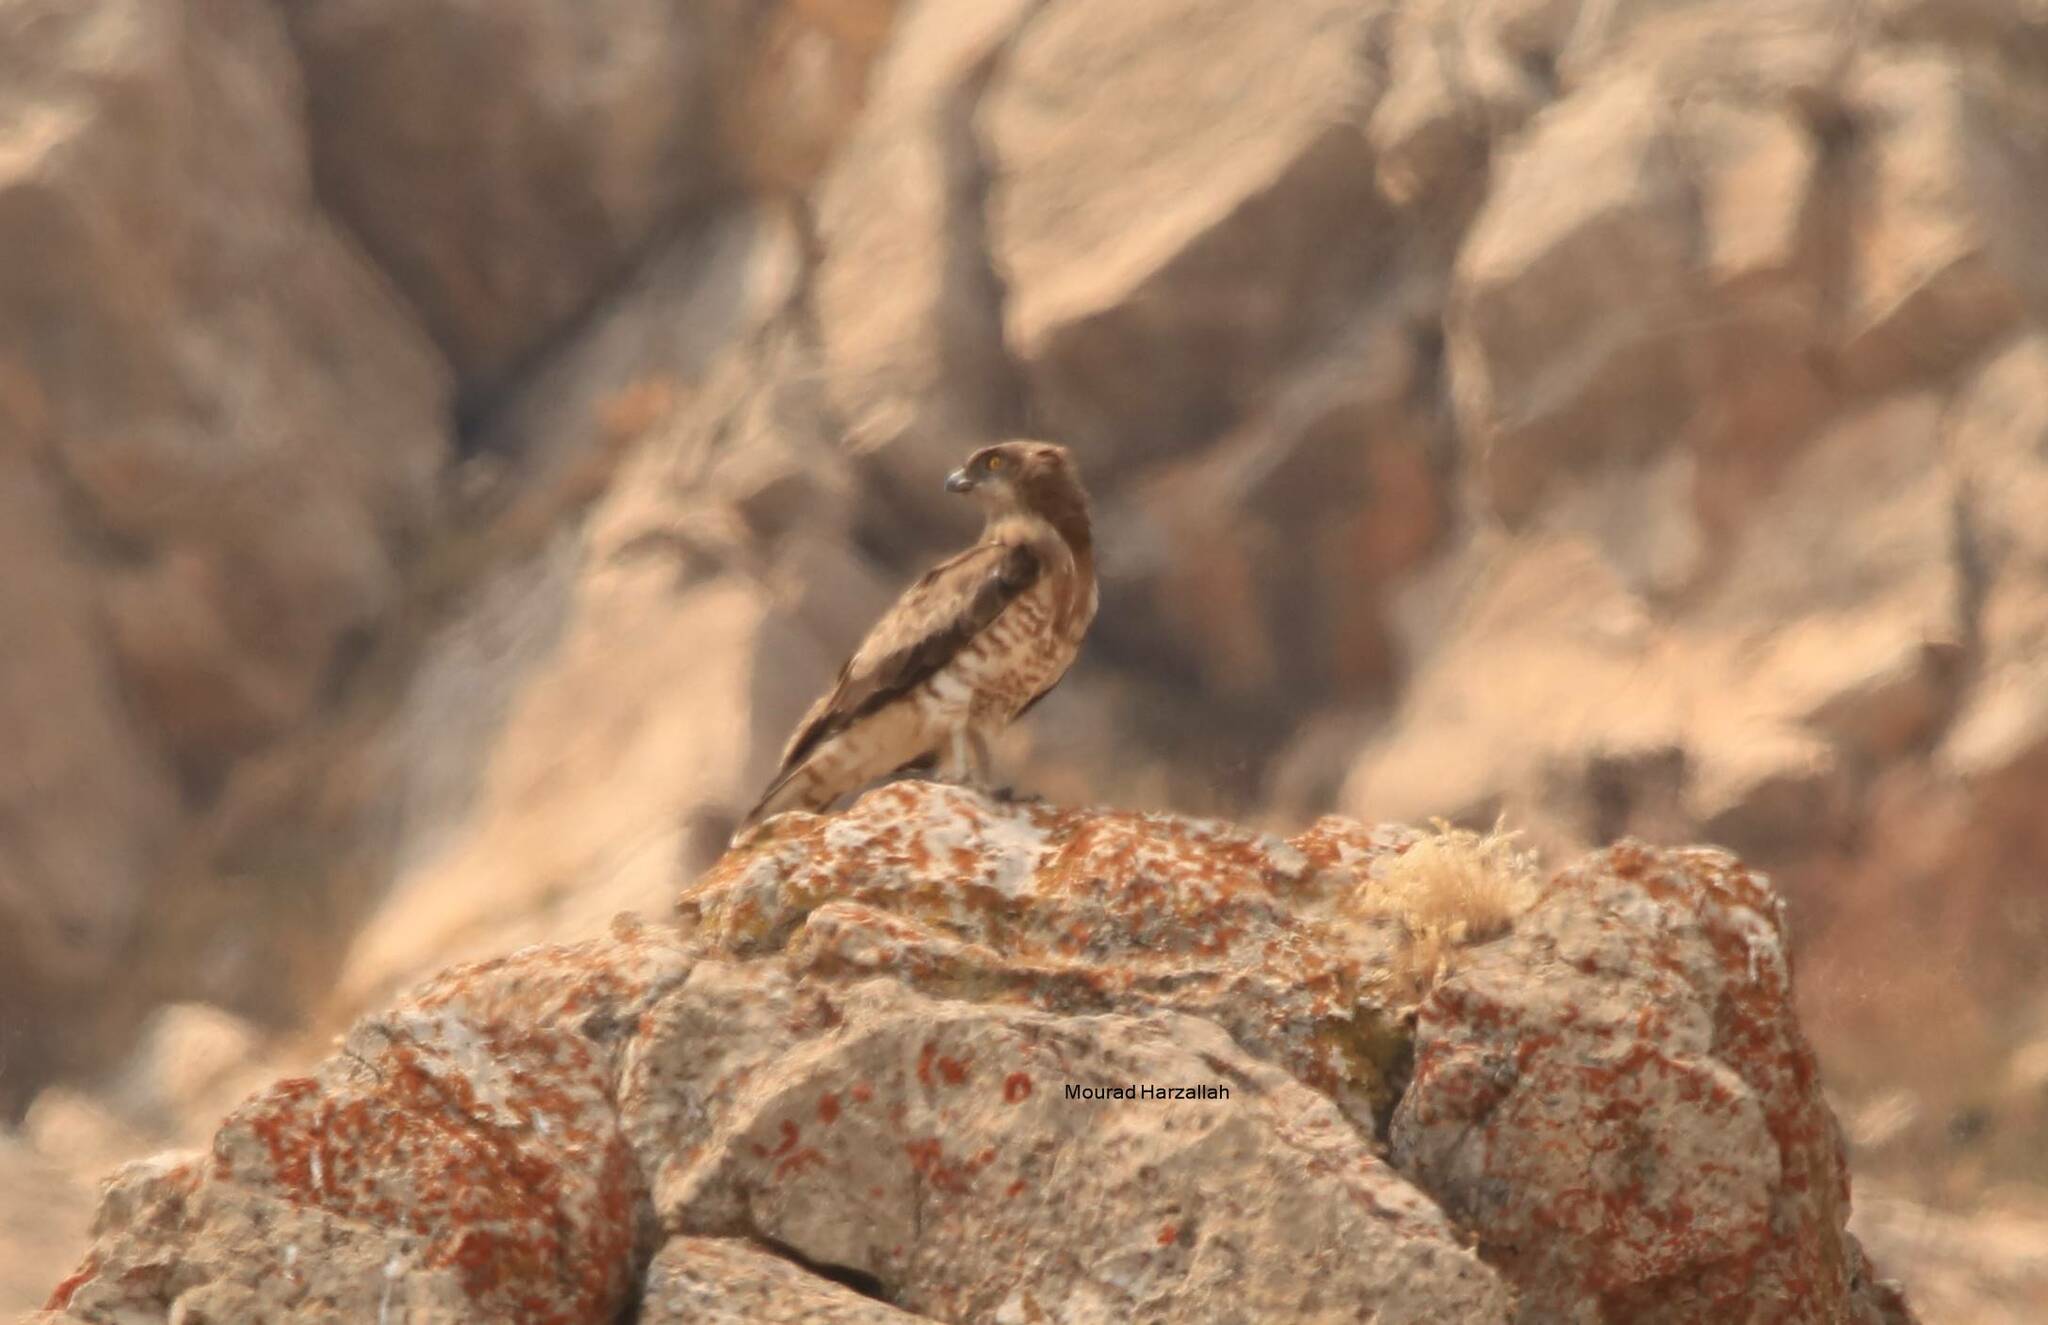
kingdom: Animalia
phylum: Chordata
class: Aves
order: Accipitriformes
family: Accipitridae
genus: Circaetus
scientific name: Circaetus gallicus
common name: Short-toed snake eagle
